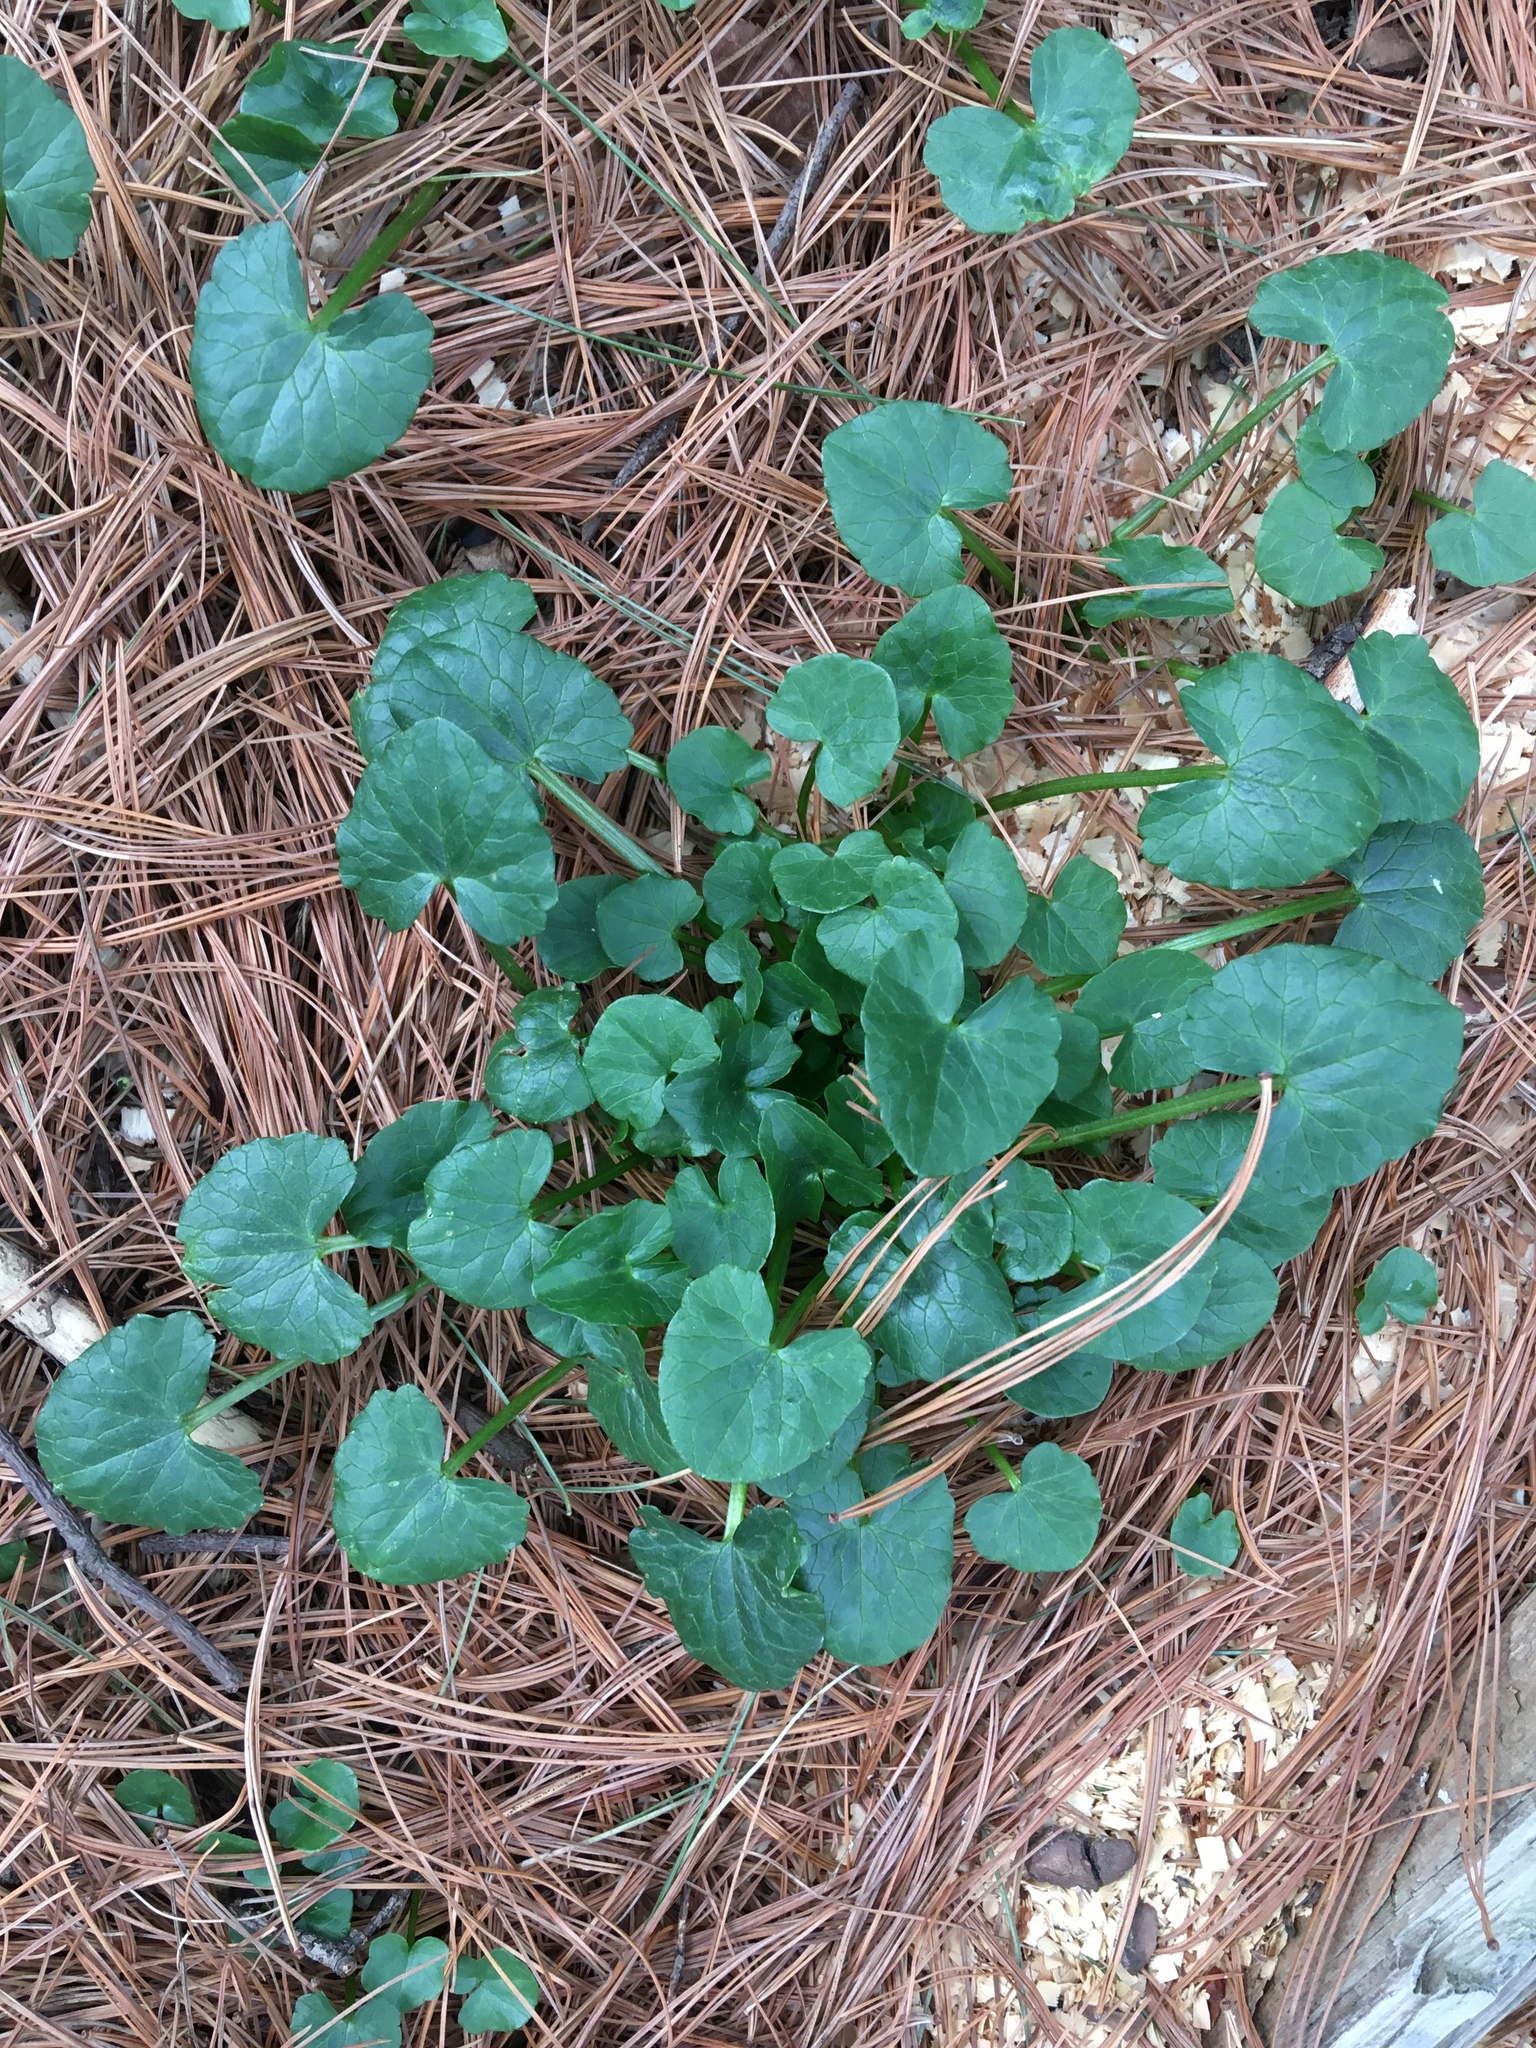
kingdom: Plantae
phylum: Tracheophyta
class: Magnoliopsida
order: Ranunculales
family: Ranunculaceae
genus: Ficaria
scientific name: Ficaria verna
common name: Lesser celandine
